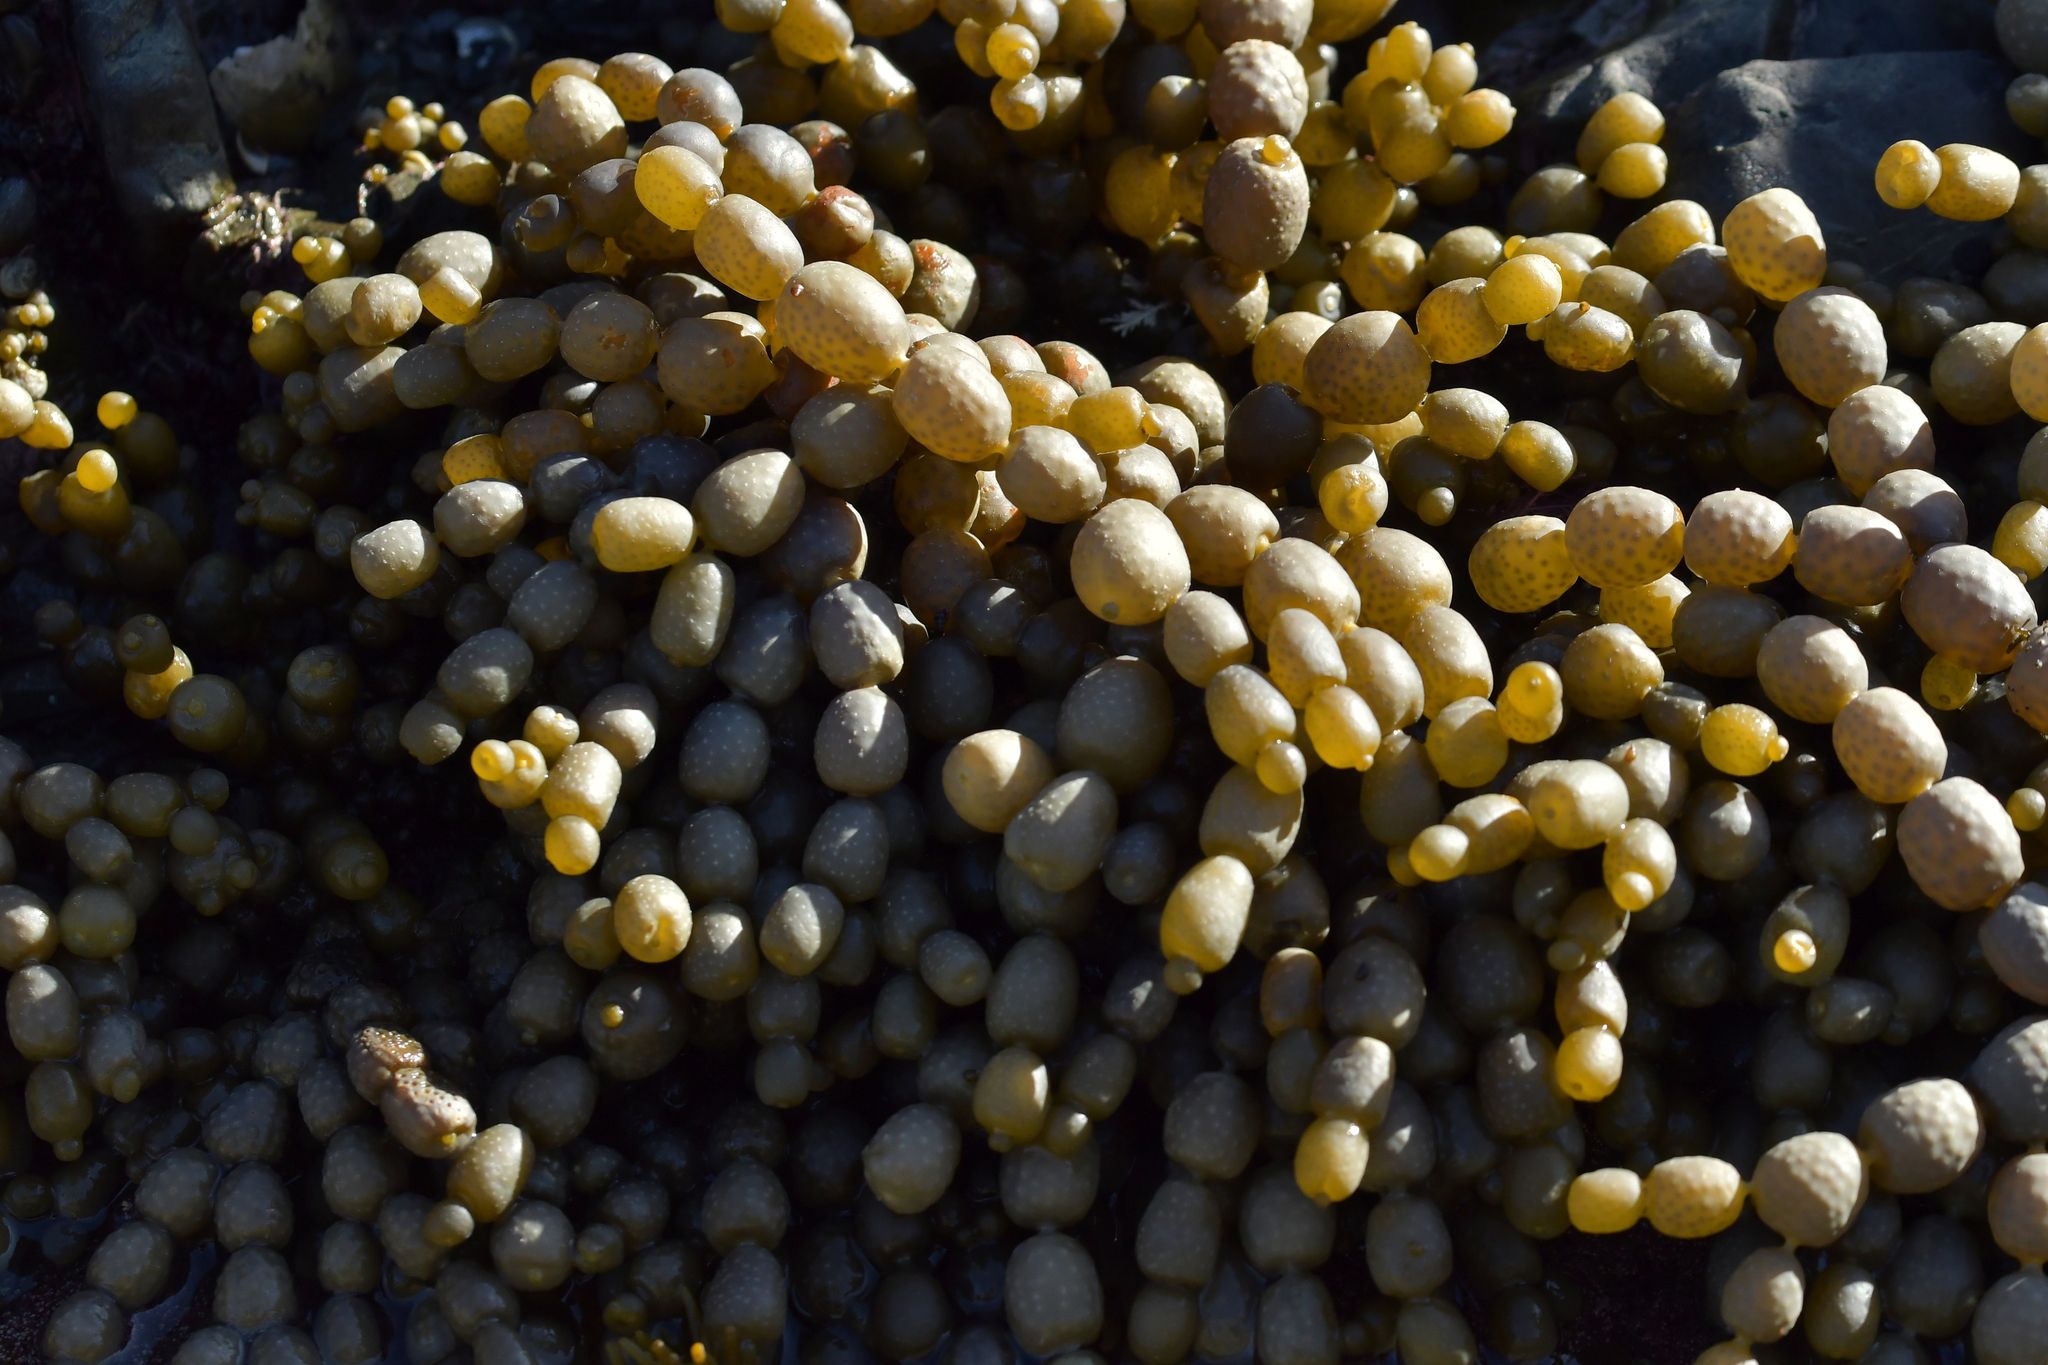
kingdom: Chromista
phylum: Ochrophyta
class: Phaeophyceae
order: Fucales
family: Hormosiraceae
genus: Hormosira
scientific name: Hormosira banksii
